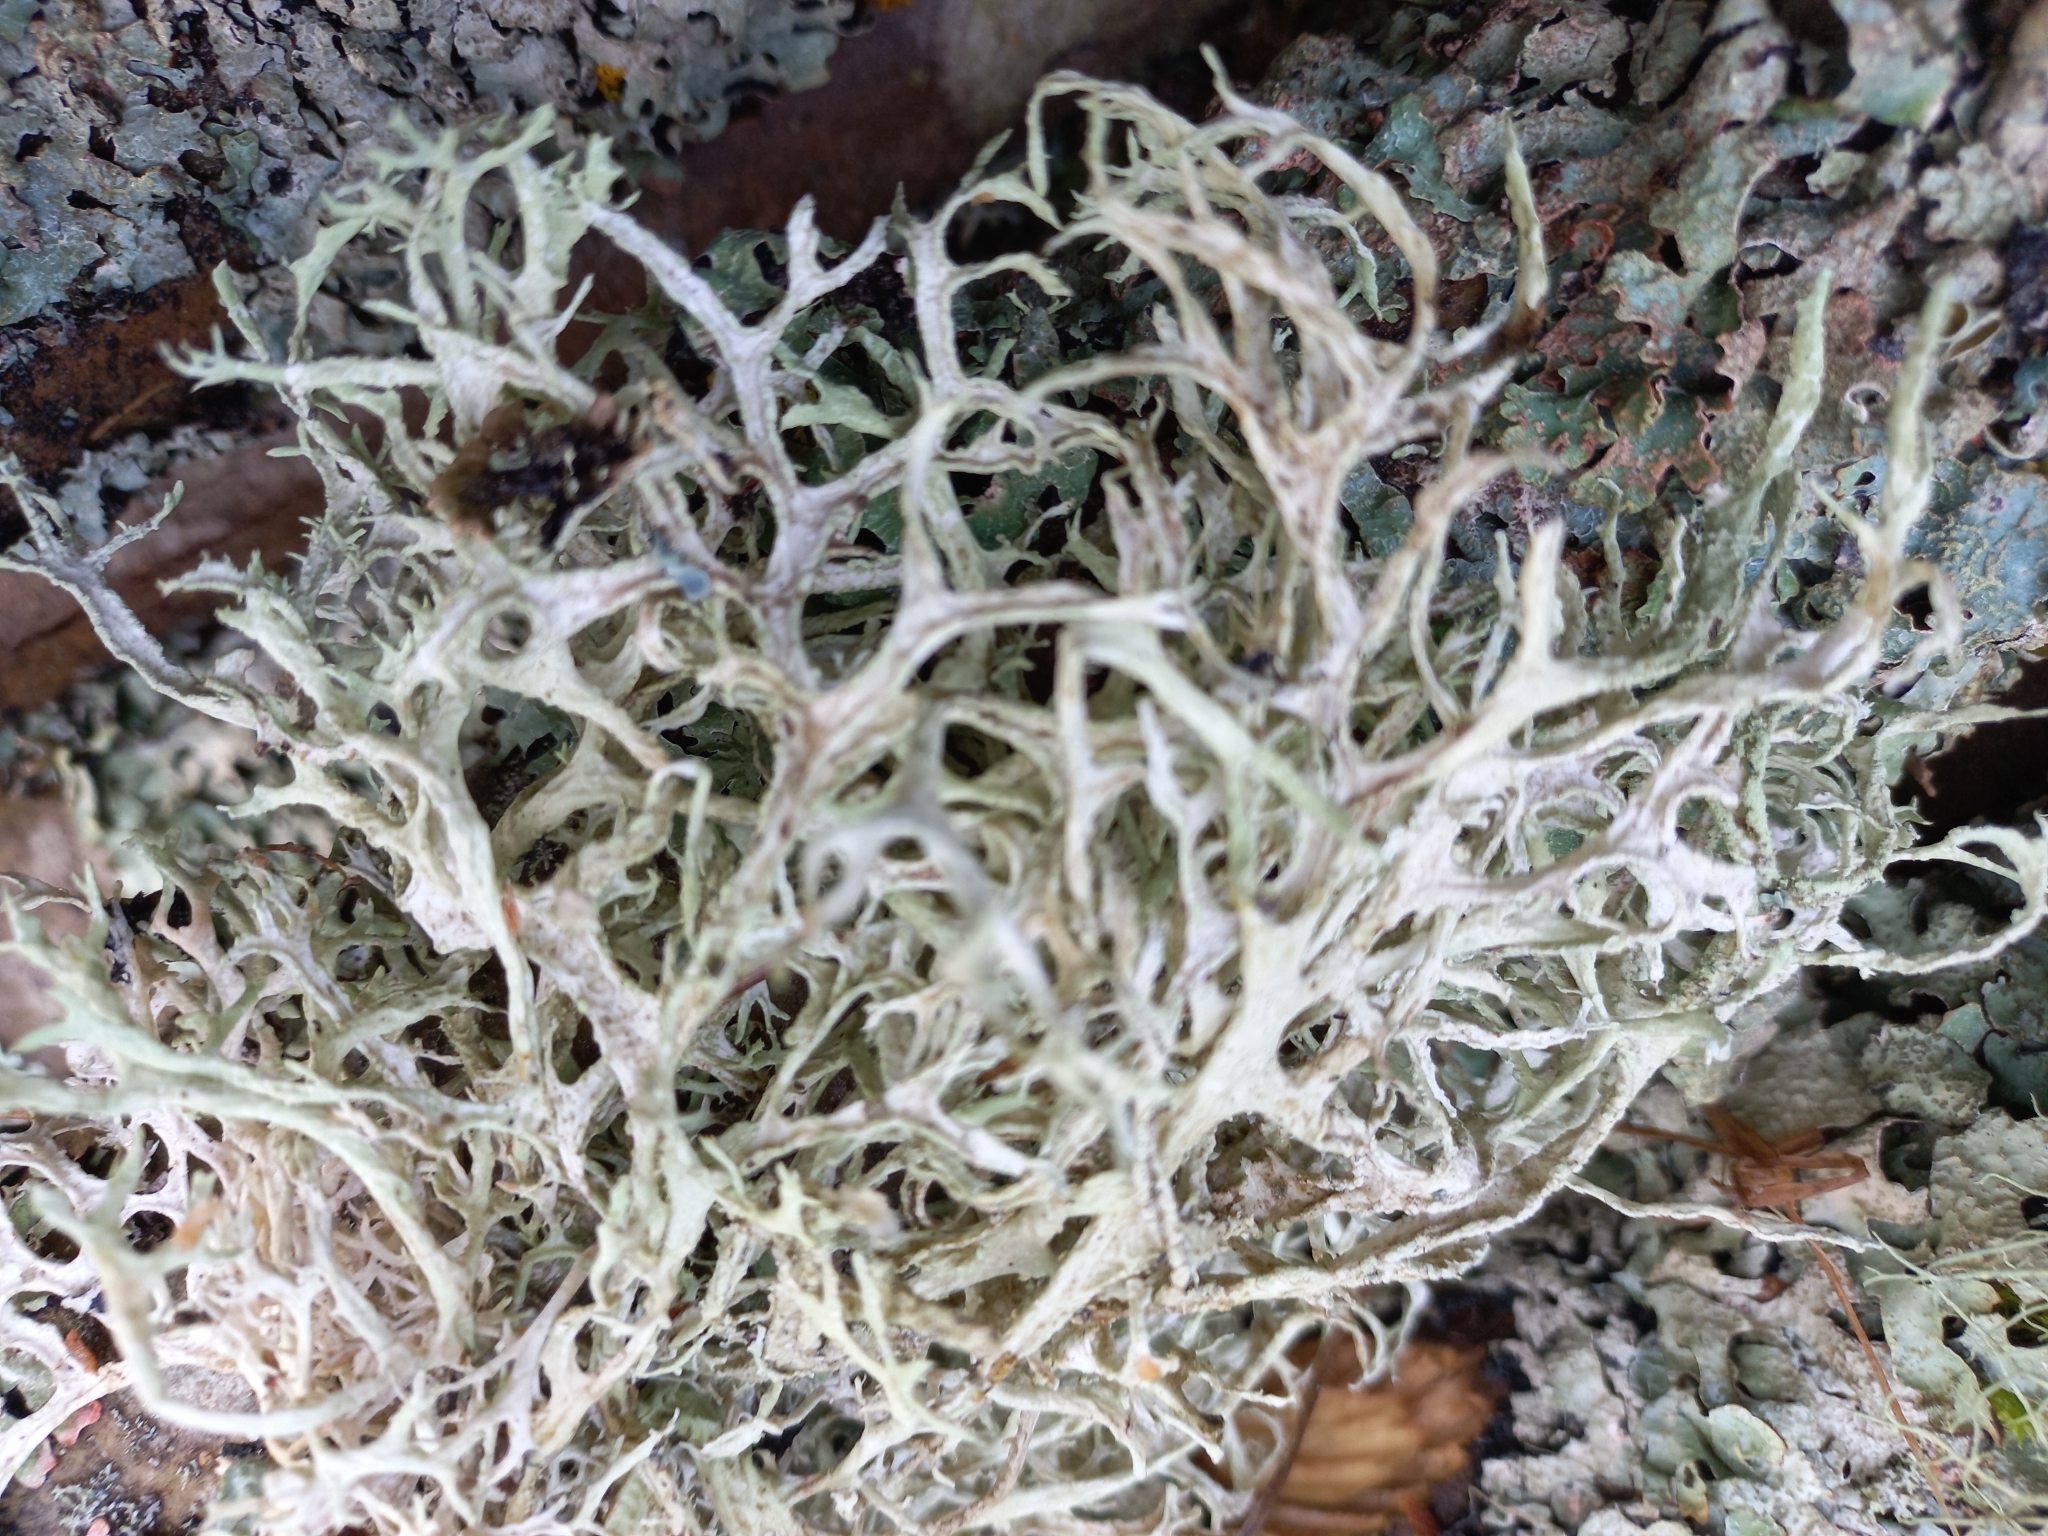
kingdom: Fungi
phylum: Ascomycota
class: Lecanoromycetes
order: Lecanorales
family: Parmeliaceae
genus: Evernia
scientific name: Evernia prunastri
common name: Oak moss
